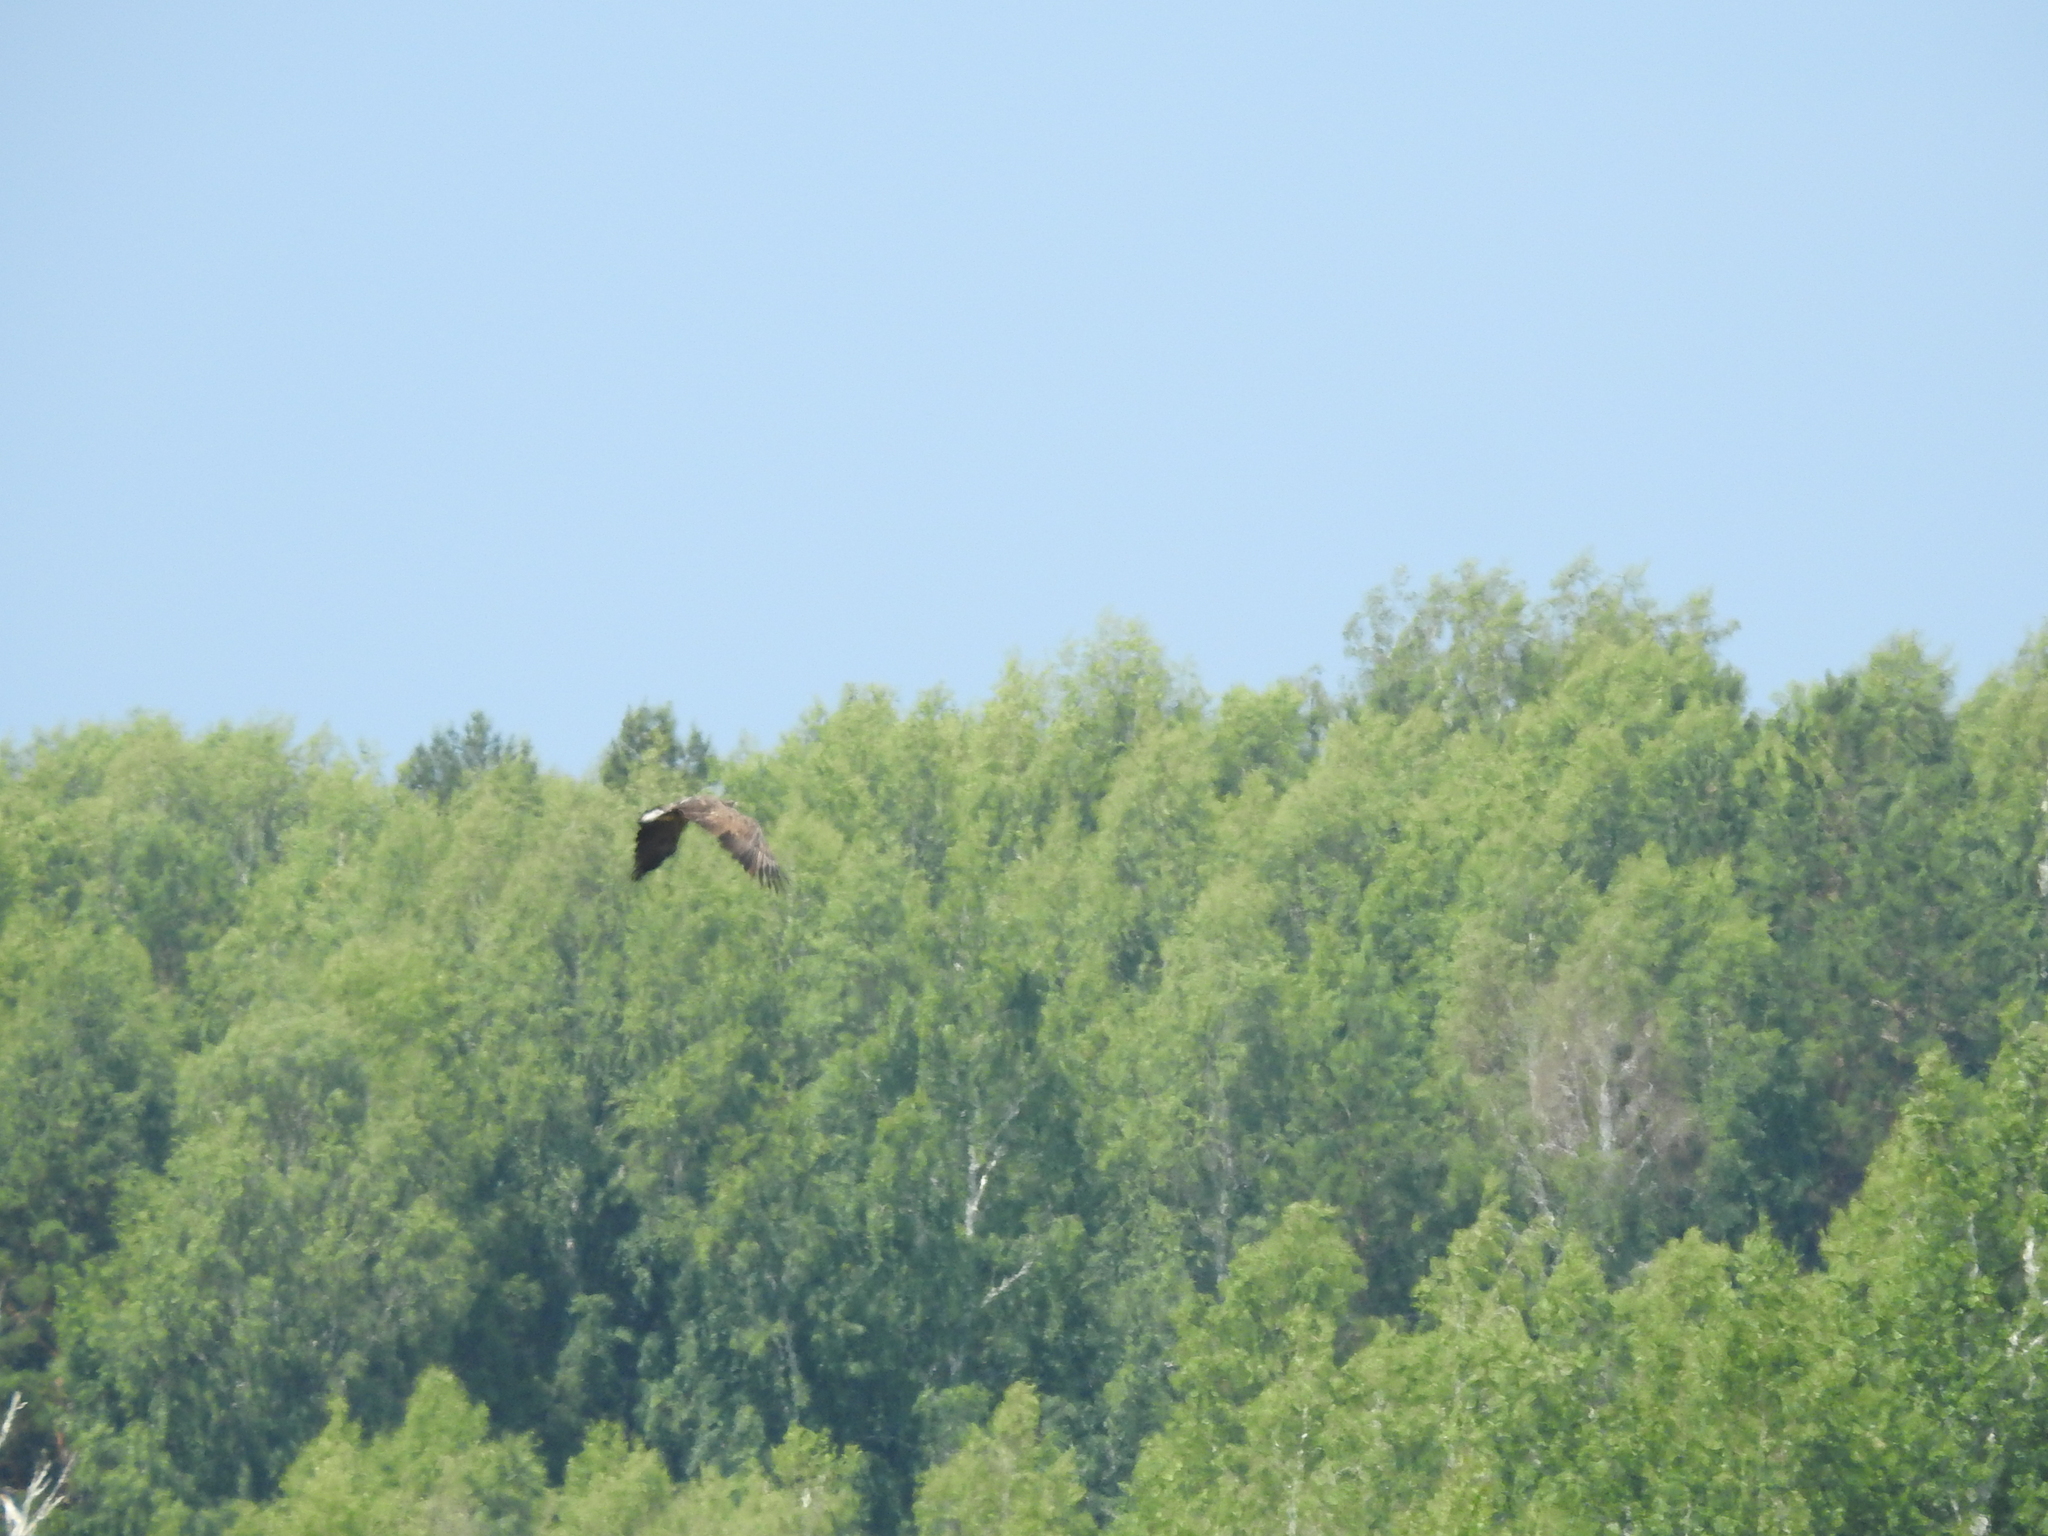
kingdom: Animalia
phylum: Chordata
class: Aves
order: Accipitriformes
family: Accipitridae
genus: Haliaeetus
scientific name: Haliaeetus albicilla
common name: White-tailed eagle
